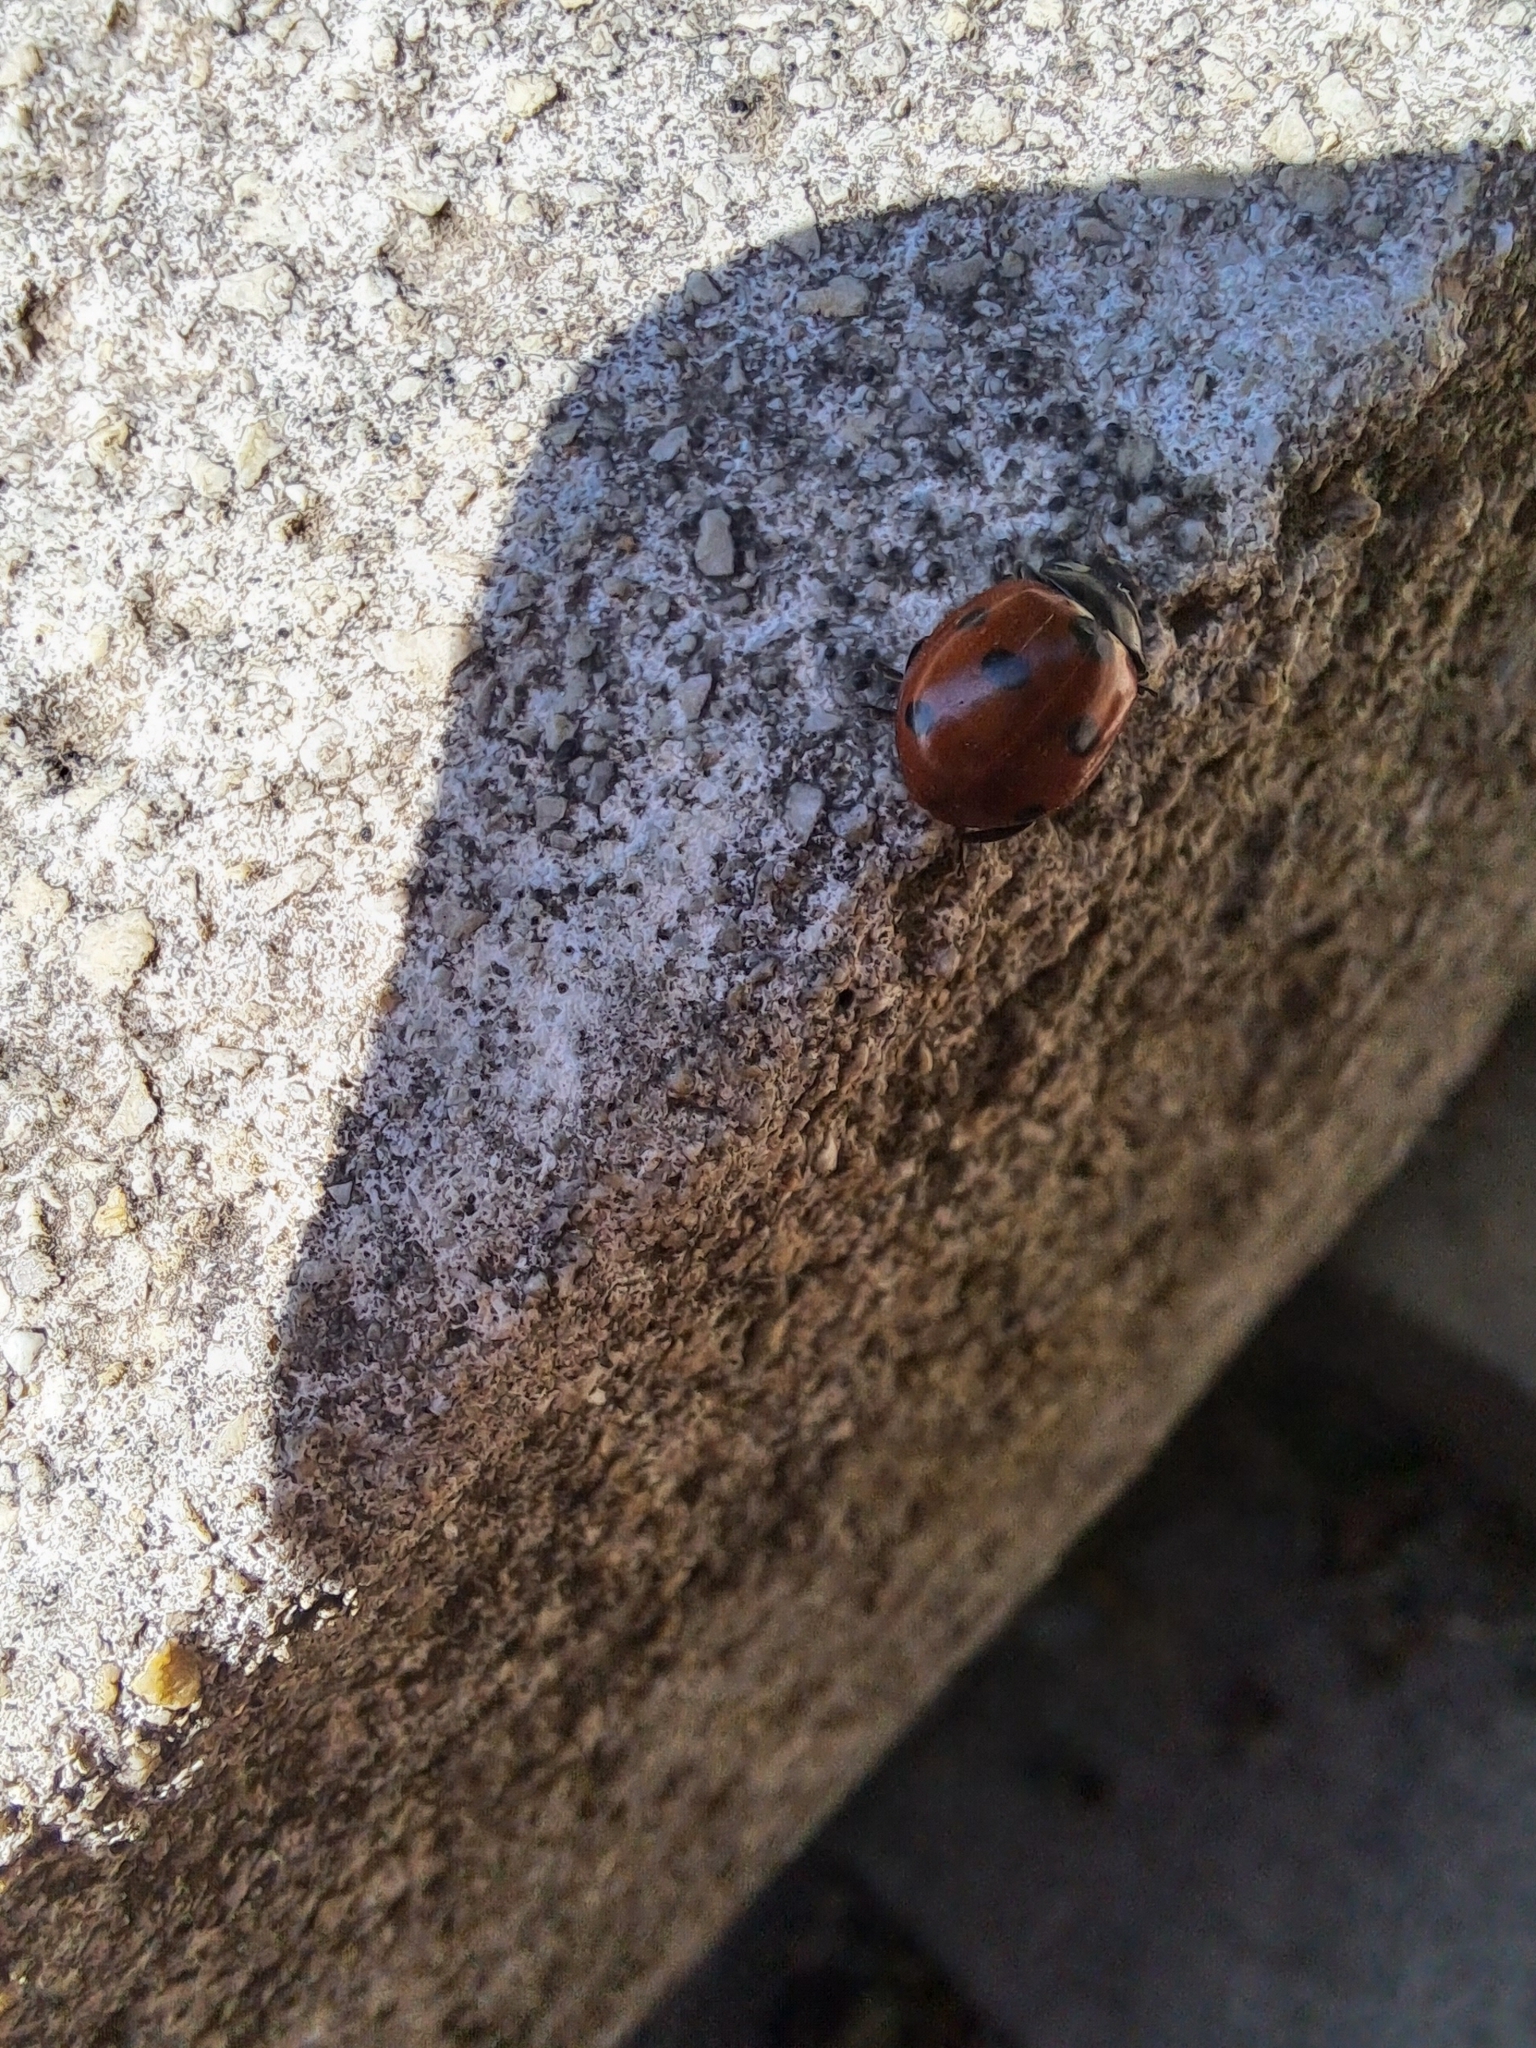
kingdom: Animalia
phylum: Arthropoda
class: Insecta
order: Coleoptera
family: Coccinellidae
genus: Coccinella
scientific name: Coccinella septempunctata
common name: Sevenspotted lady beetle
